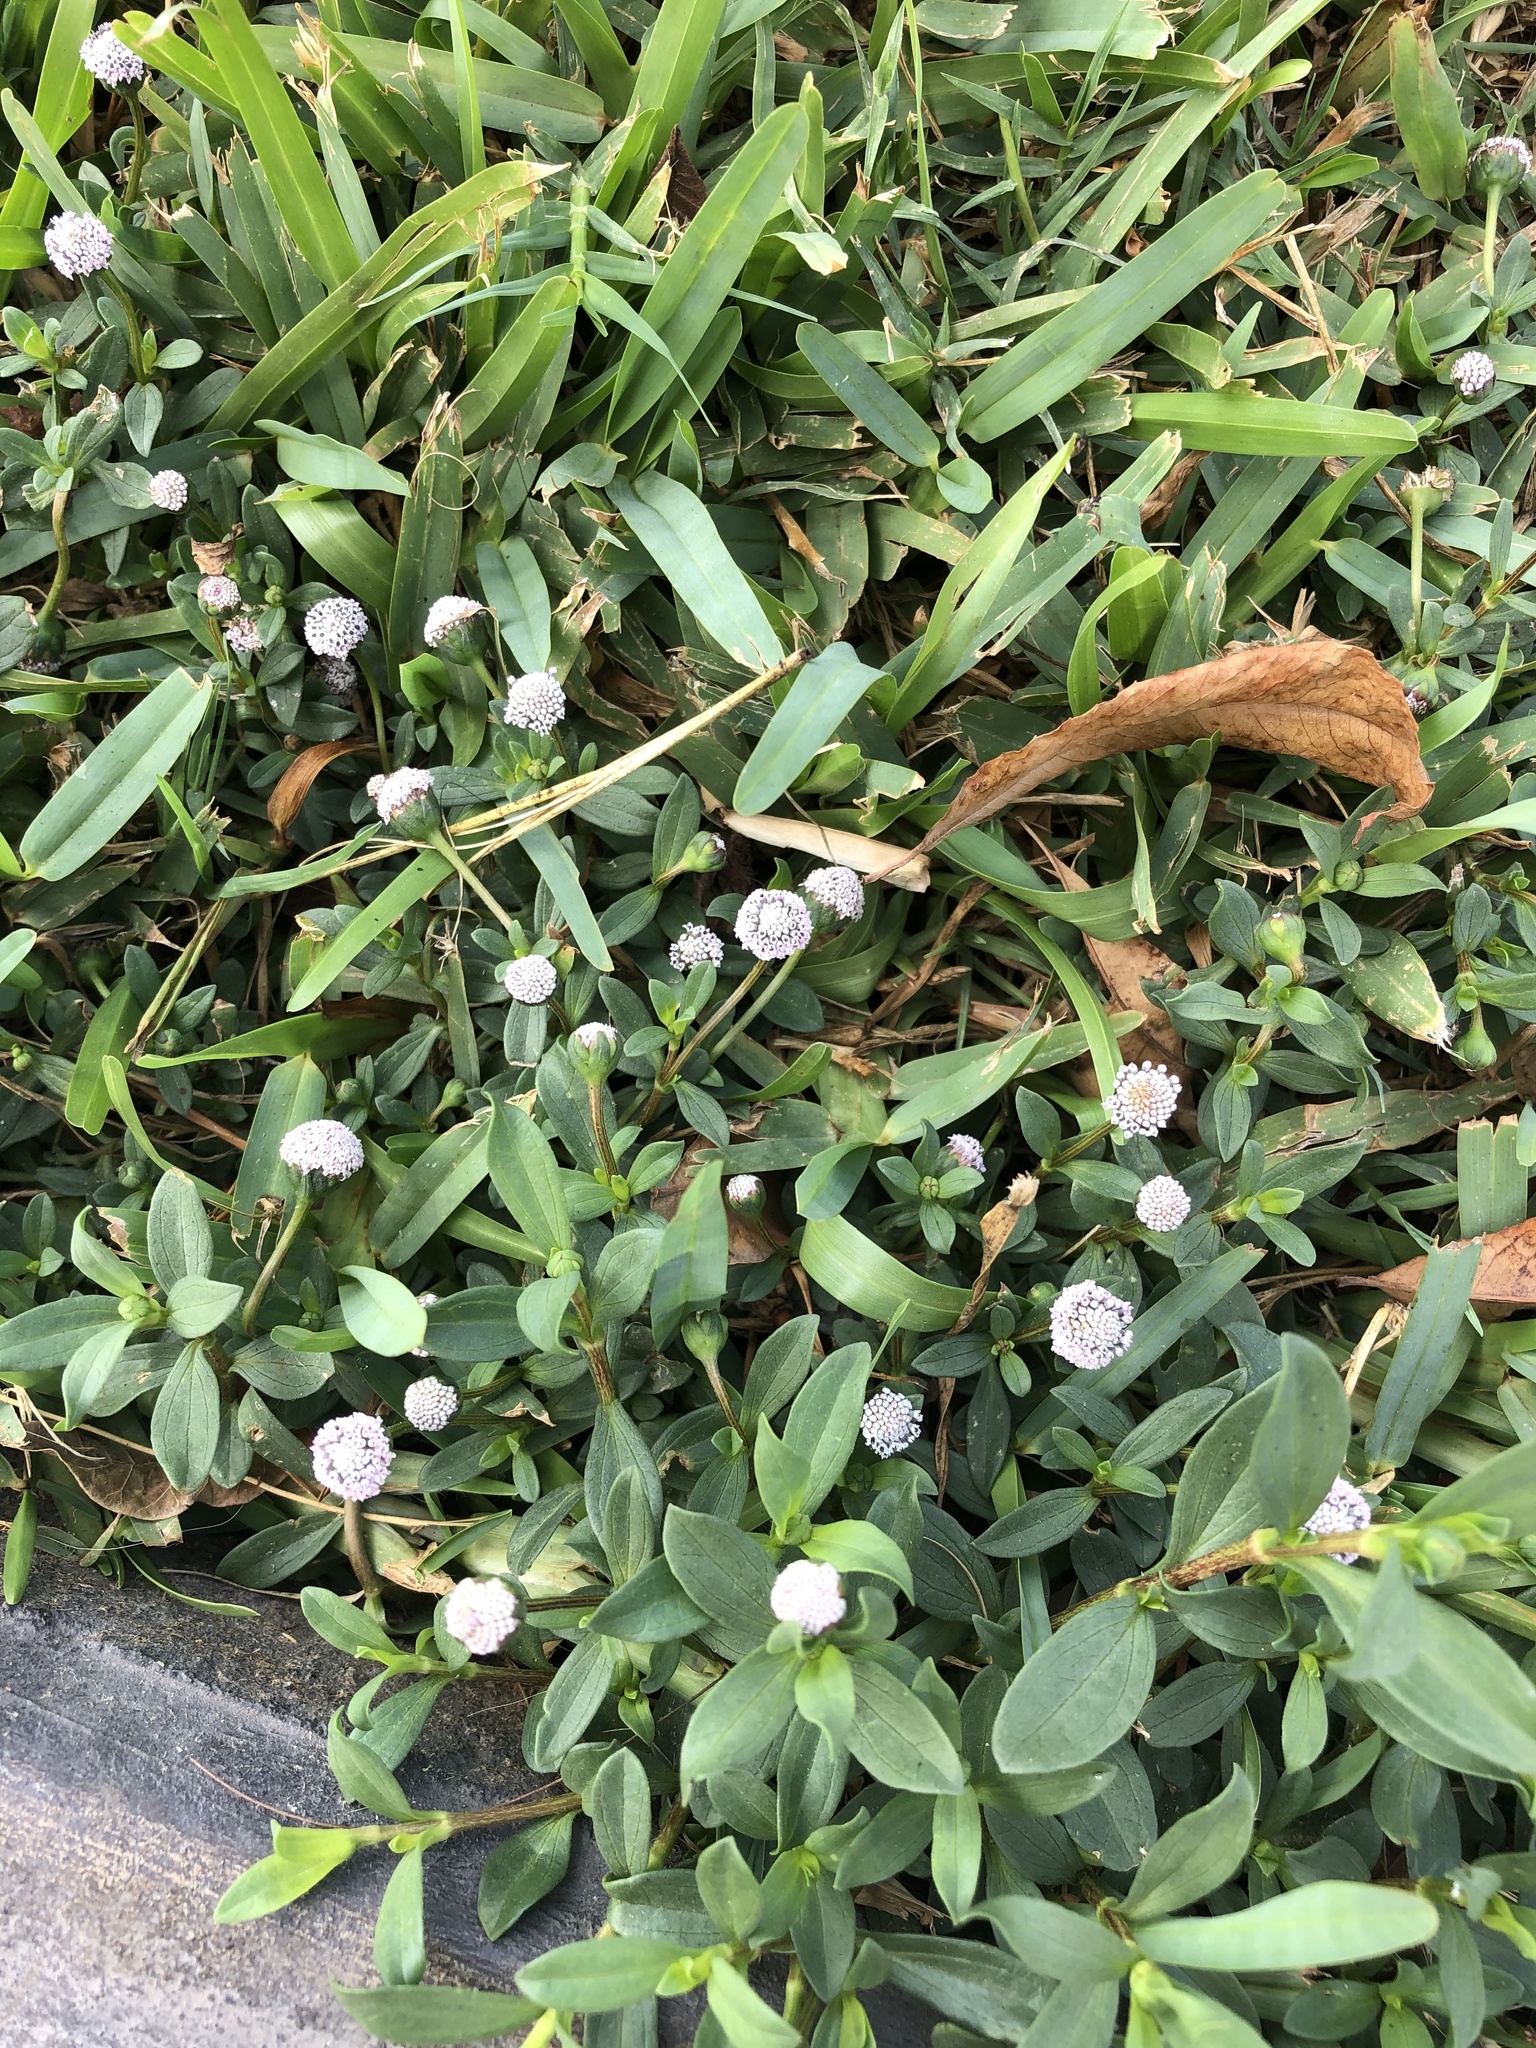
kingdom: Plantae
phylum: Tracheophyta
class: Magnoliopsida
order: Asterales
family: Asteraceae
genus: Spilanthes
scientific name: Spilanthes leiocarpa
